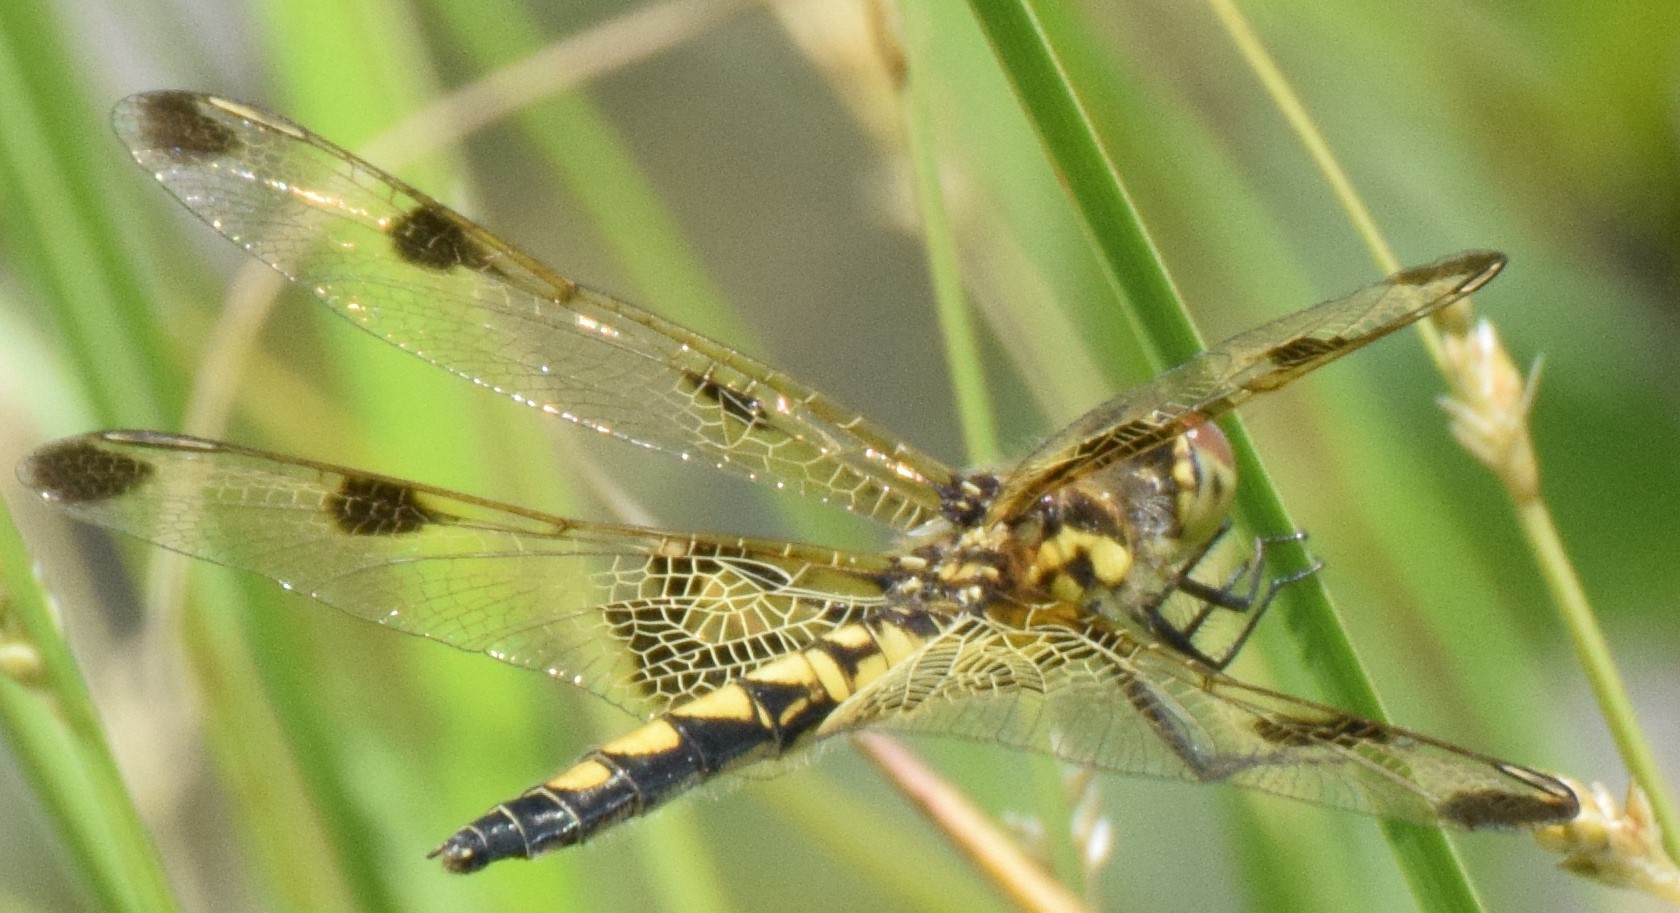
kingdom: Animalia
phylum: Arthropoda
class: Insecta
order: Odonata
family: Libellulidae
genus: Celithemis
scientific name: Celithemis elisa
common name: Calico pennant
